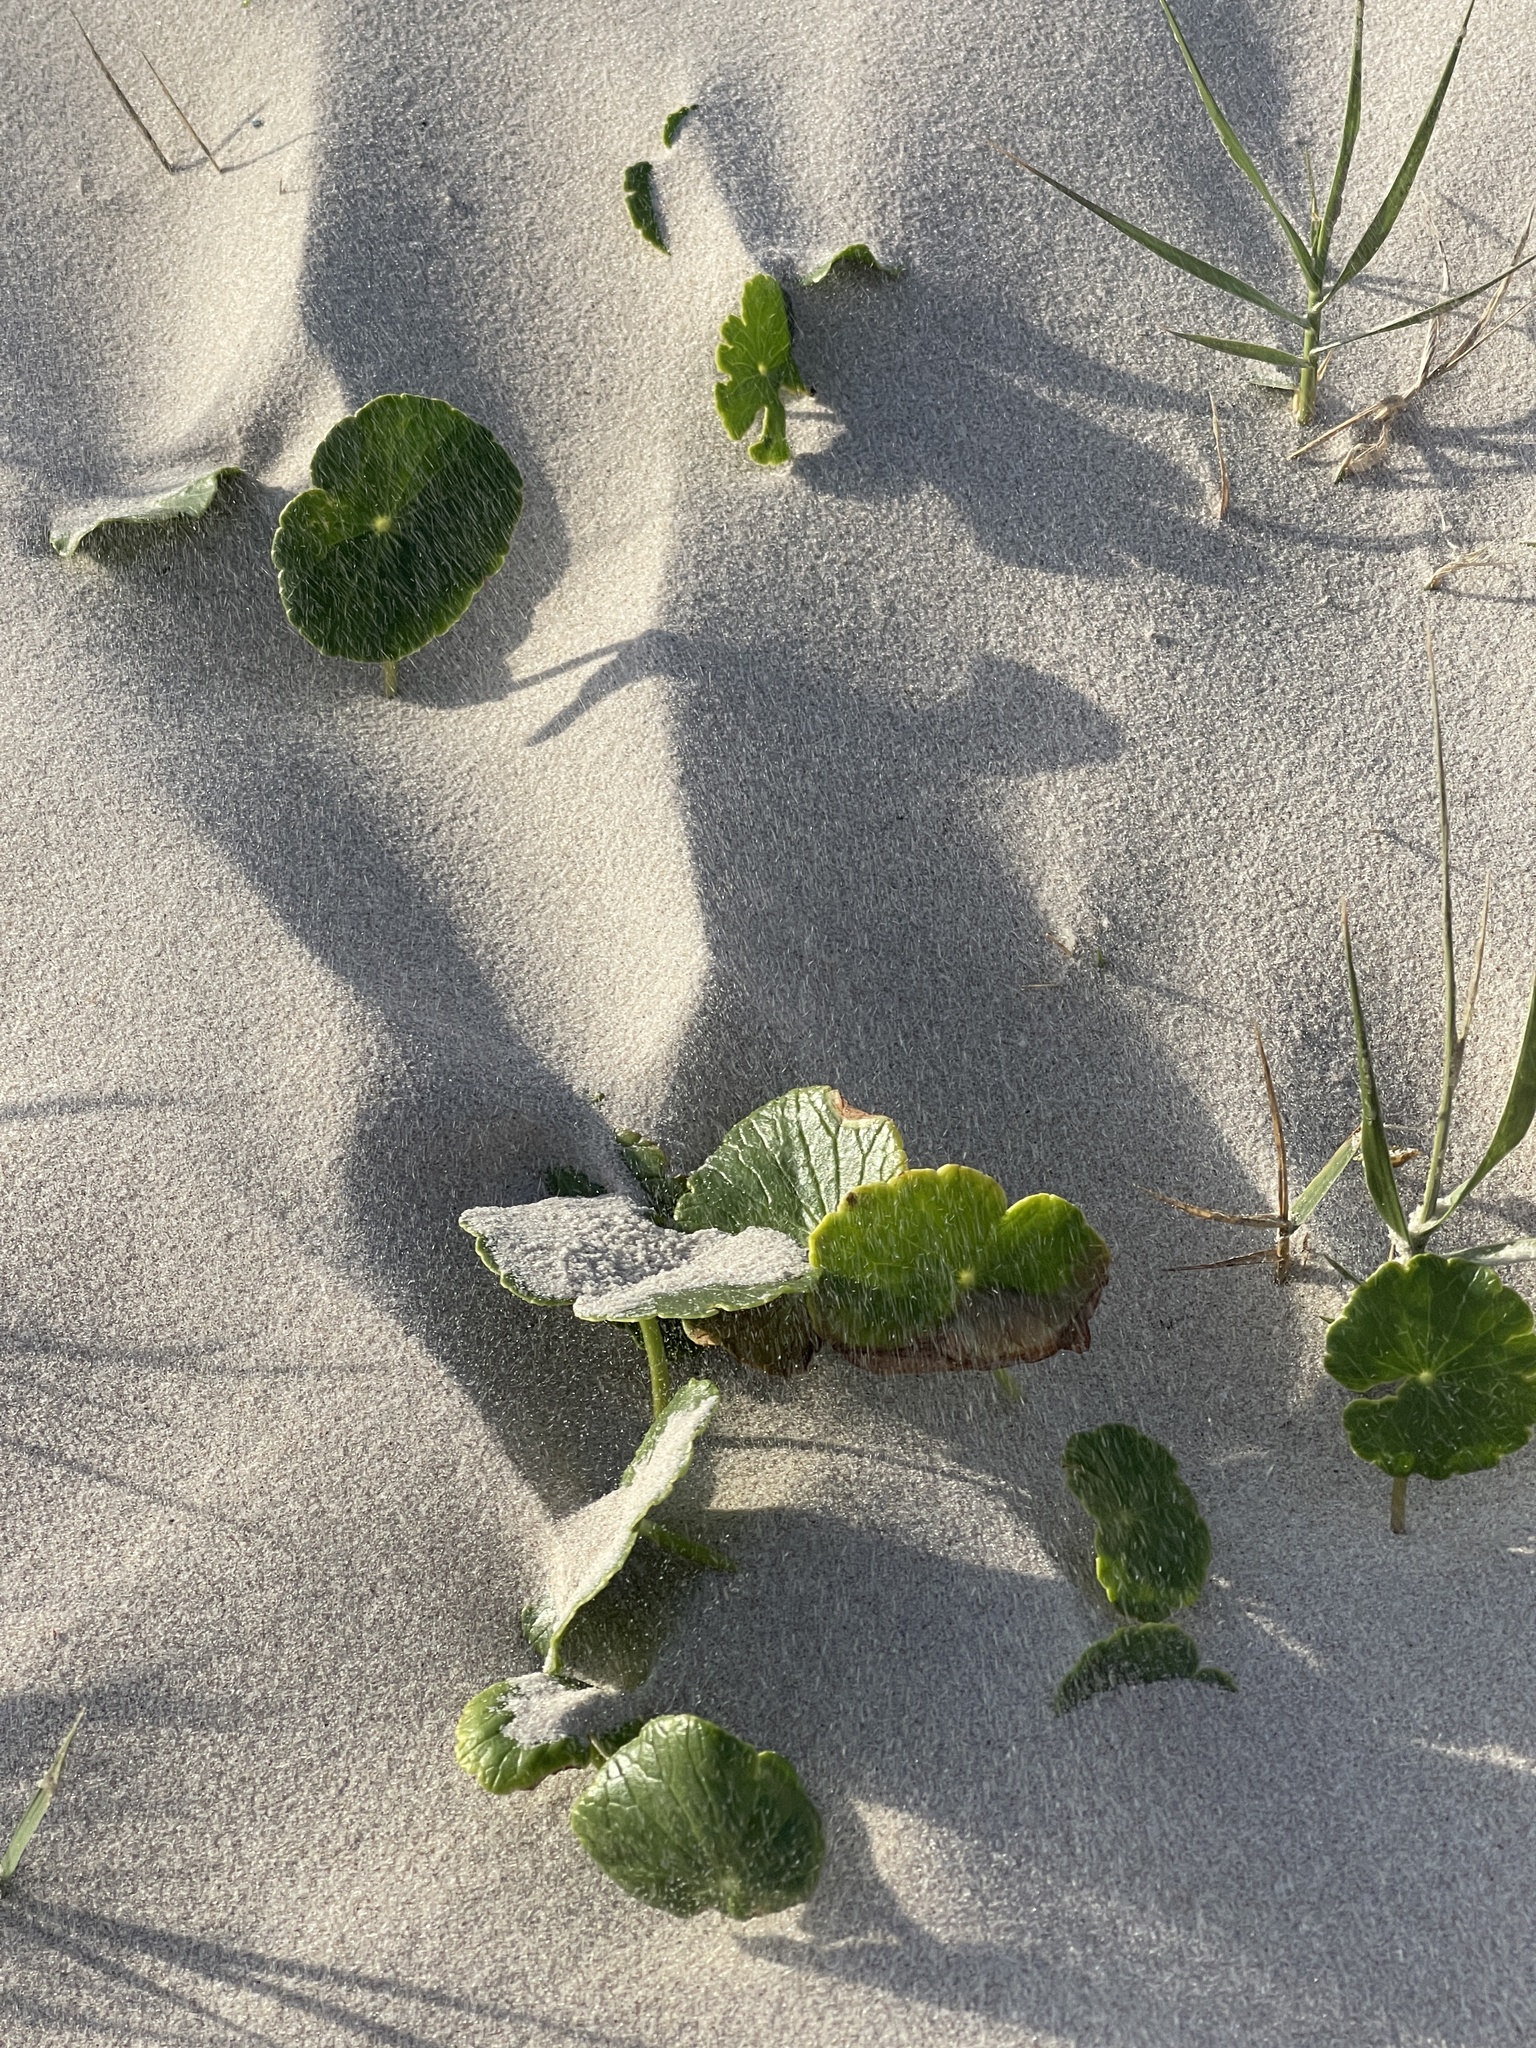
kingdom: Plantae
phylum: Tracheophyta
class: Magnoliopsida
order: Solanales
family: Convolvulaceae
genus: Ipomoea
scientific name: Ipomoea pes-caprae
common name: Beach morning glory
